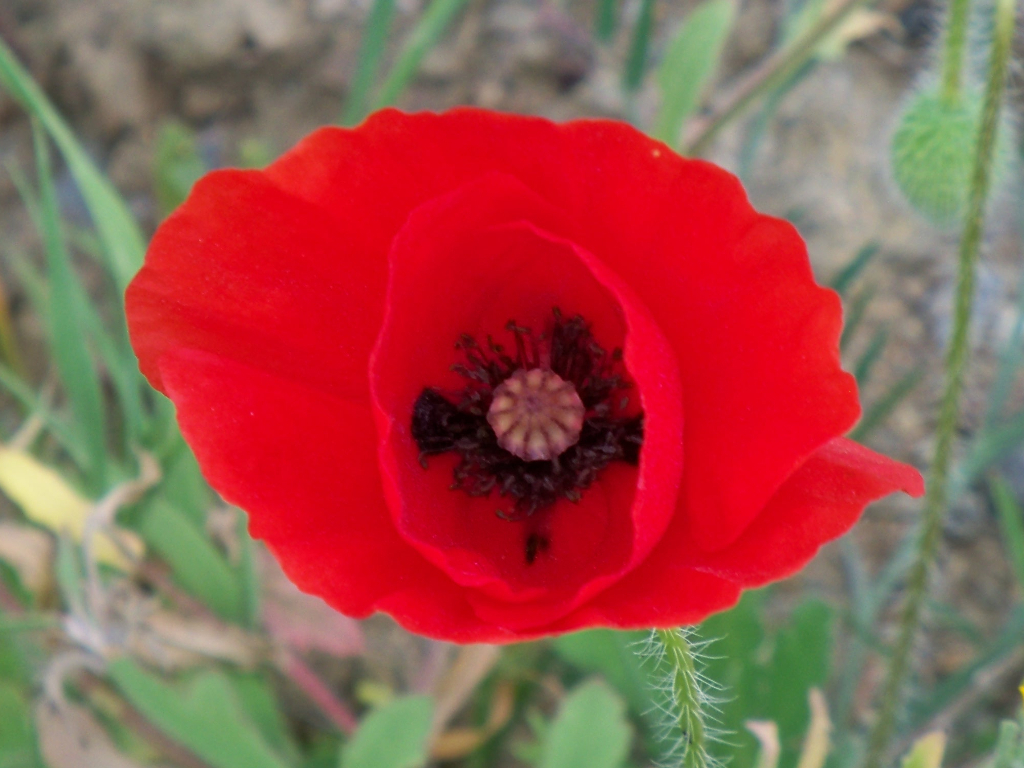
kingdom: Plantae
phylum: Tracheophyta
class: Magnoliopsida
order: Ranunculales
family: Papaveraceae
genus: Papaver
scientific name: Papaver rhoeas
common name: Corn poppy
